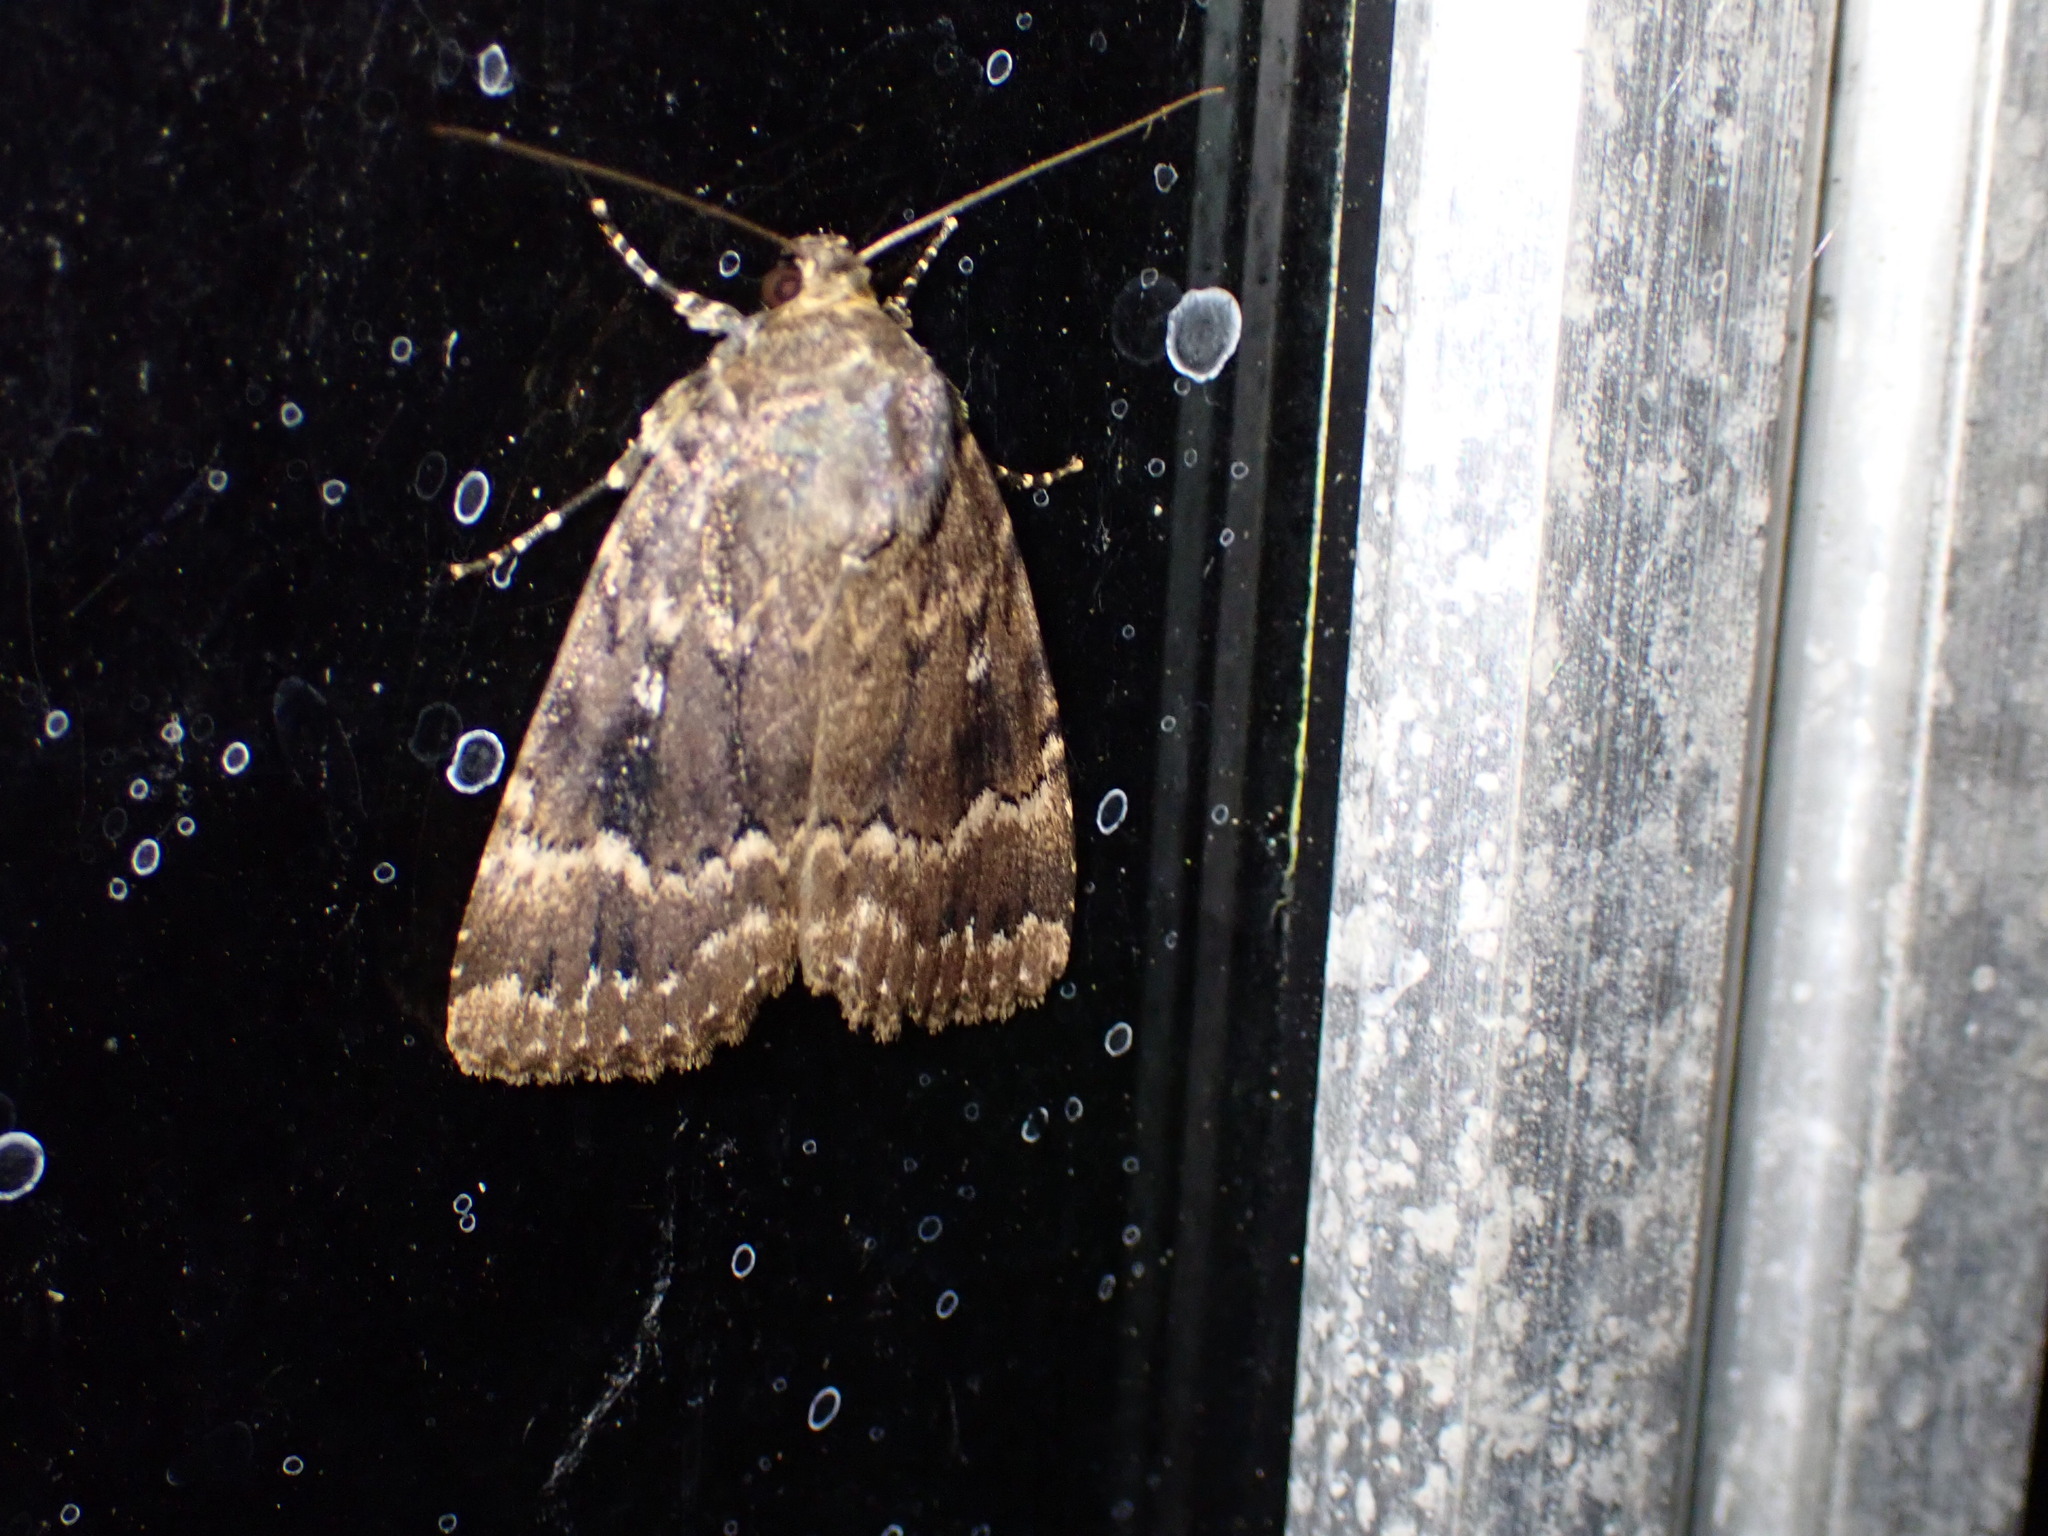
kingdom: Animalia
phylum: Arthropoda
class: Insecta
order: Lepidoptera
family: Noctuidae
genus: Amphipyra
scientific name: Amphipyra pyramidea
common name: Copper underwing
